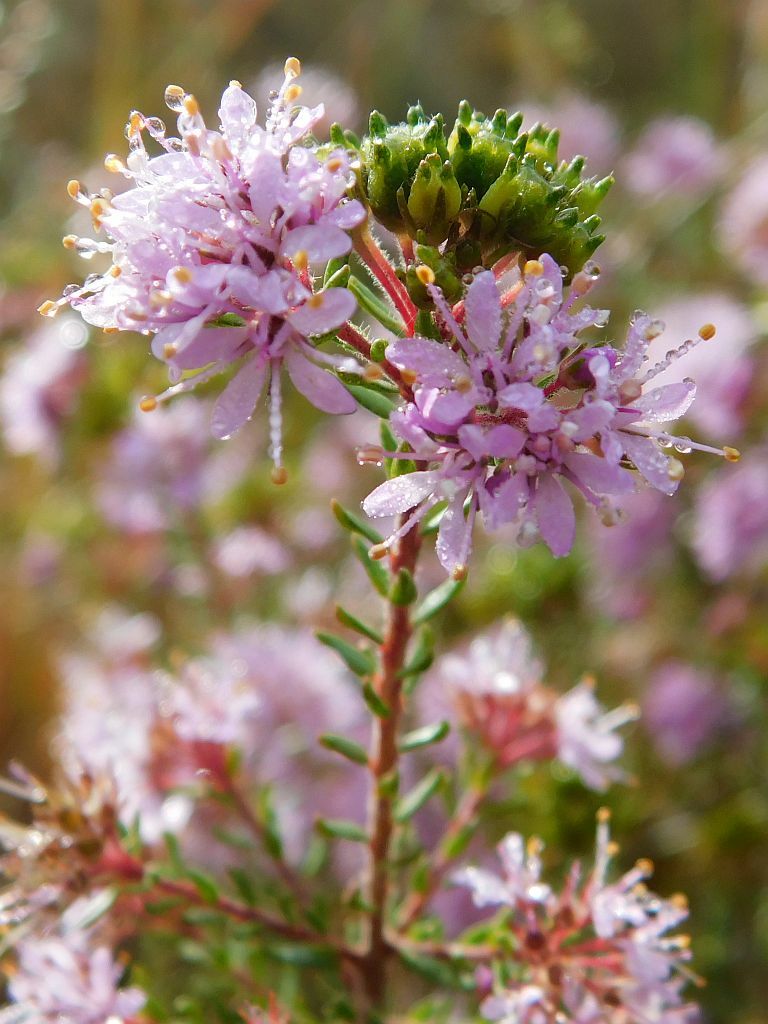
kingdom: Plantae
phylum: Tracheophyta
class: Magnoliopsida
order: Sapindales
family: Rutaceae
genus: Agathosma
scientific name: Agathosma capensis
